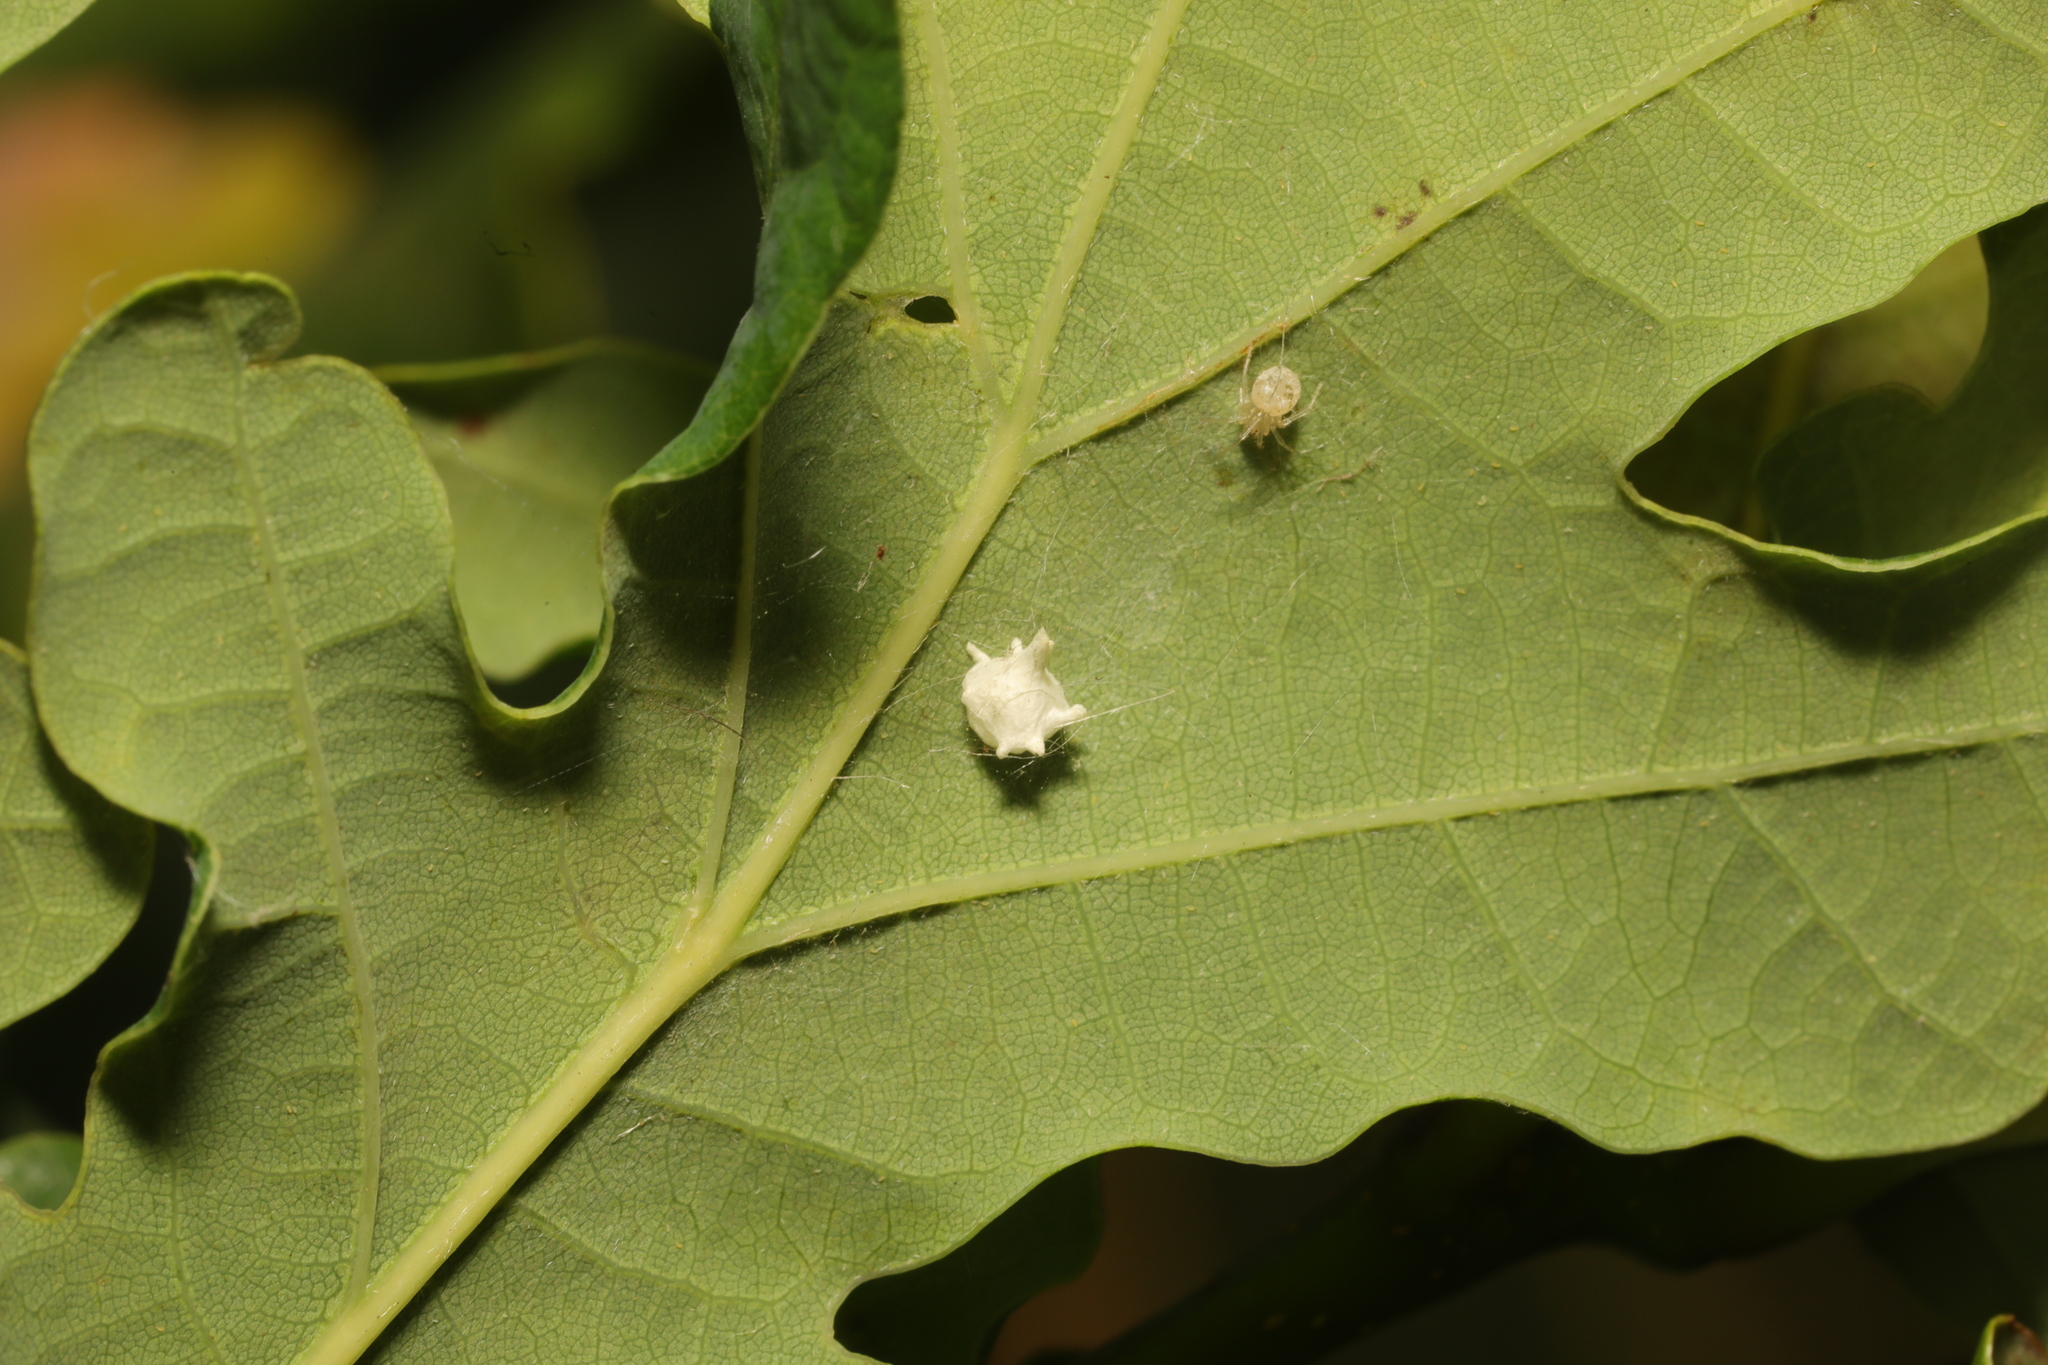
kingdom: Animalia
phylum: Arthropoda
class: Arachnida
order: Araneae
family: Theridiidae
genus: Paidiscura
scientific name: Paidiscura pallens
